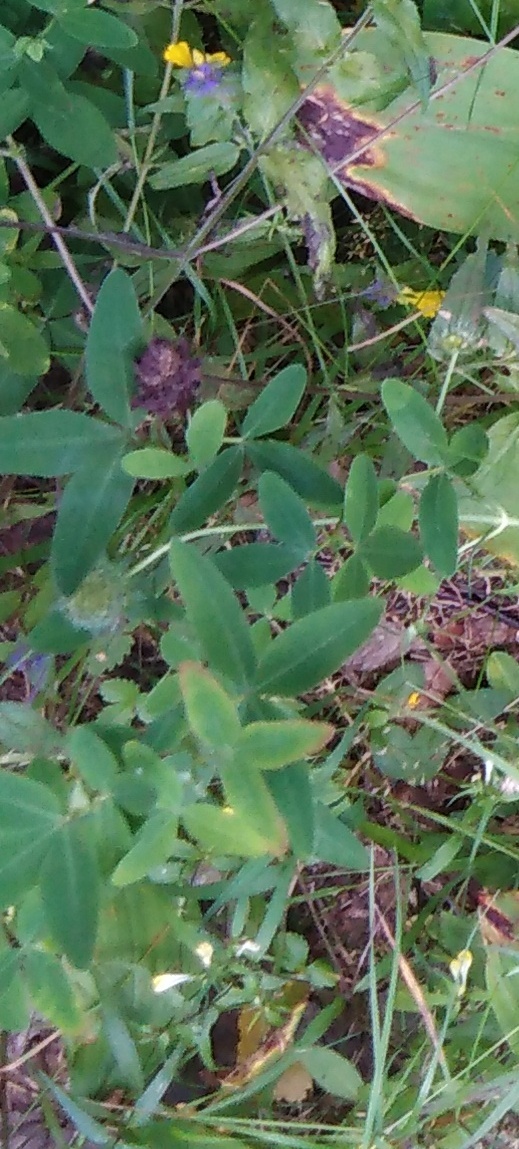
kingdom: Plantae
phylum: Tracheophyta
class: Magnoliopsida
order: Fabales
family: Fabaceae
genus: Trifolium
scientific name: Trifolium medium
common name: Zigzag clover
